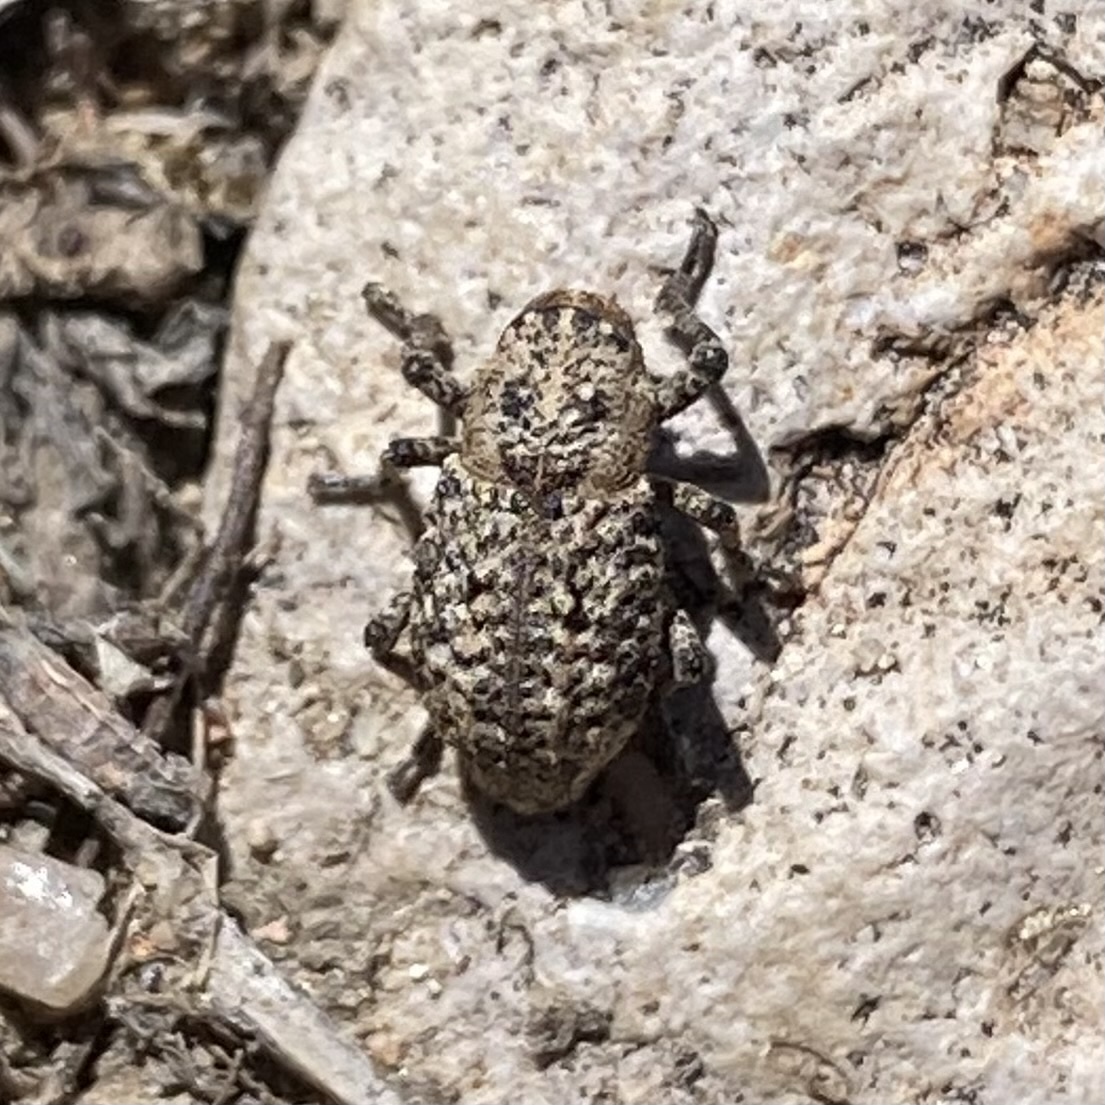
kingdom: Animalia
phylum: Arthropoda
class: Insecta
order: Coleoptera
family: Curculionidae
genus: Thecesternus
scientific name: Thecesternus affinis
